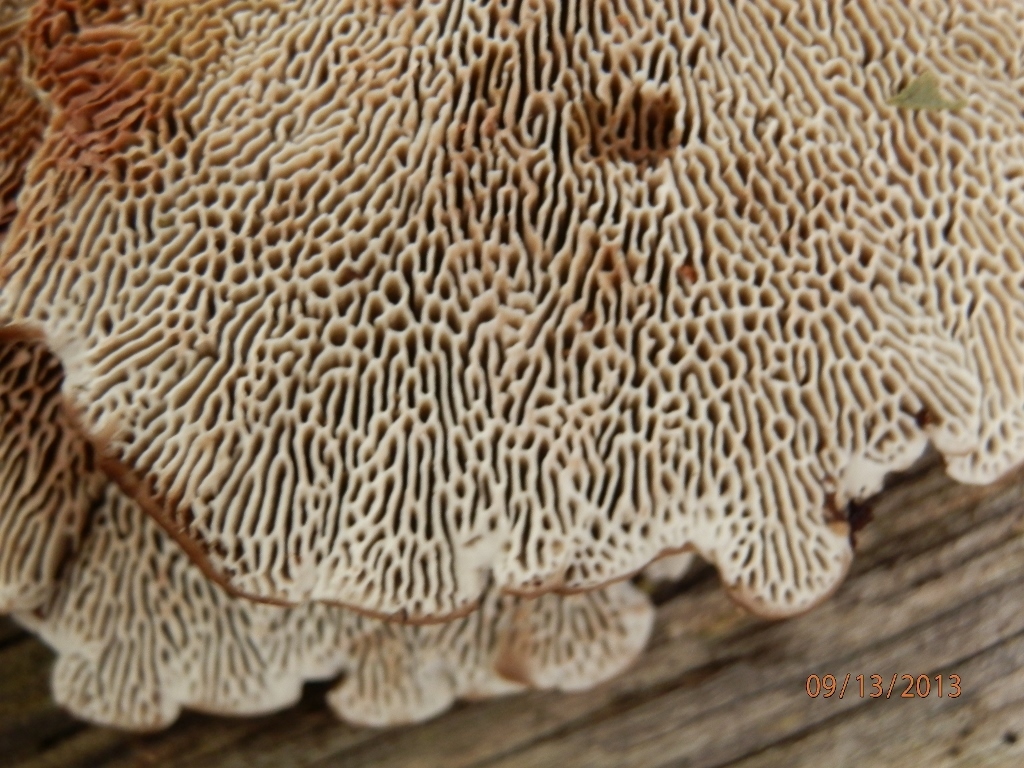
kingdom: Fungi
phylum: Basidiomycota
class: Agaricomycetes
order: Polyporales
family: Polyporaceae
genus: Daedaleopsis
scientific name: Daedaleopsis confragosa
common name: Blushing bracket
